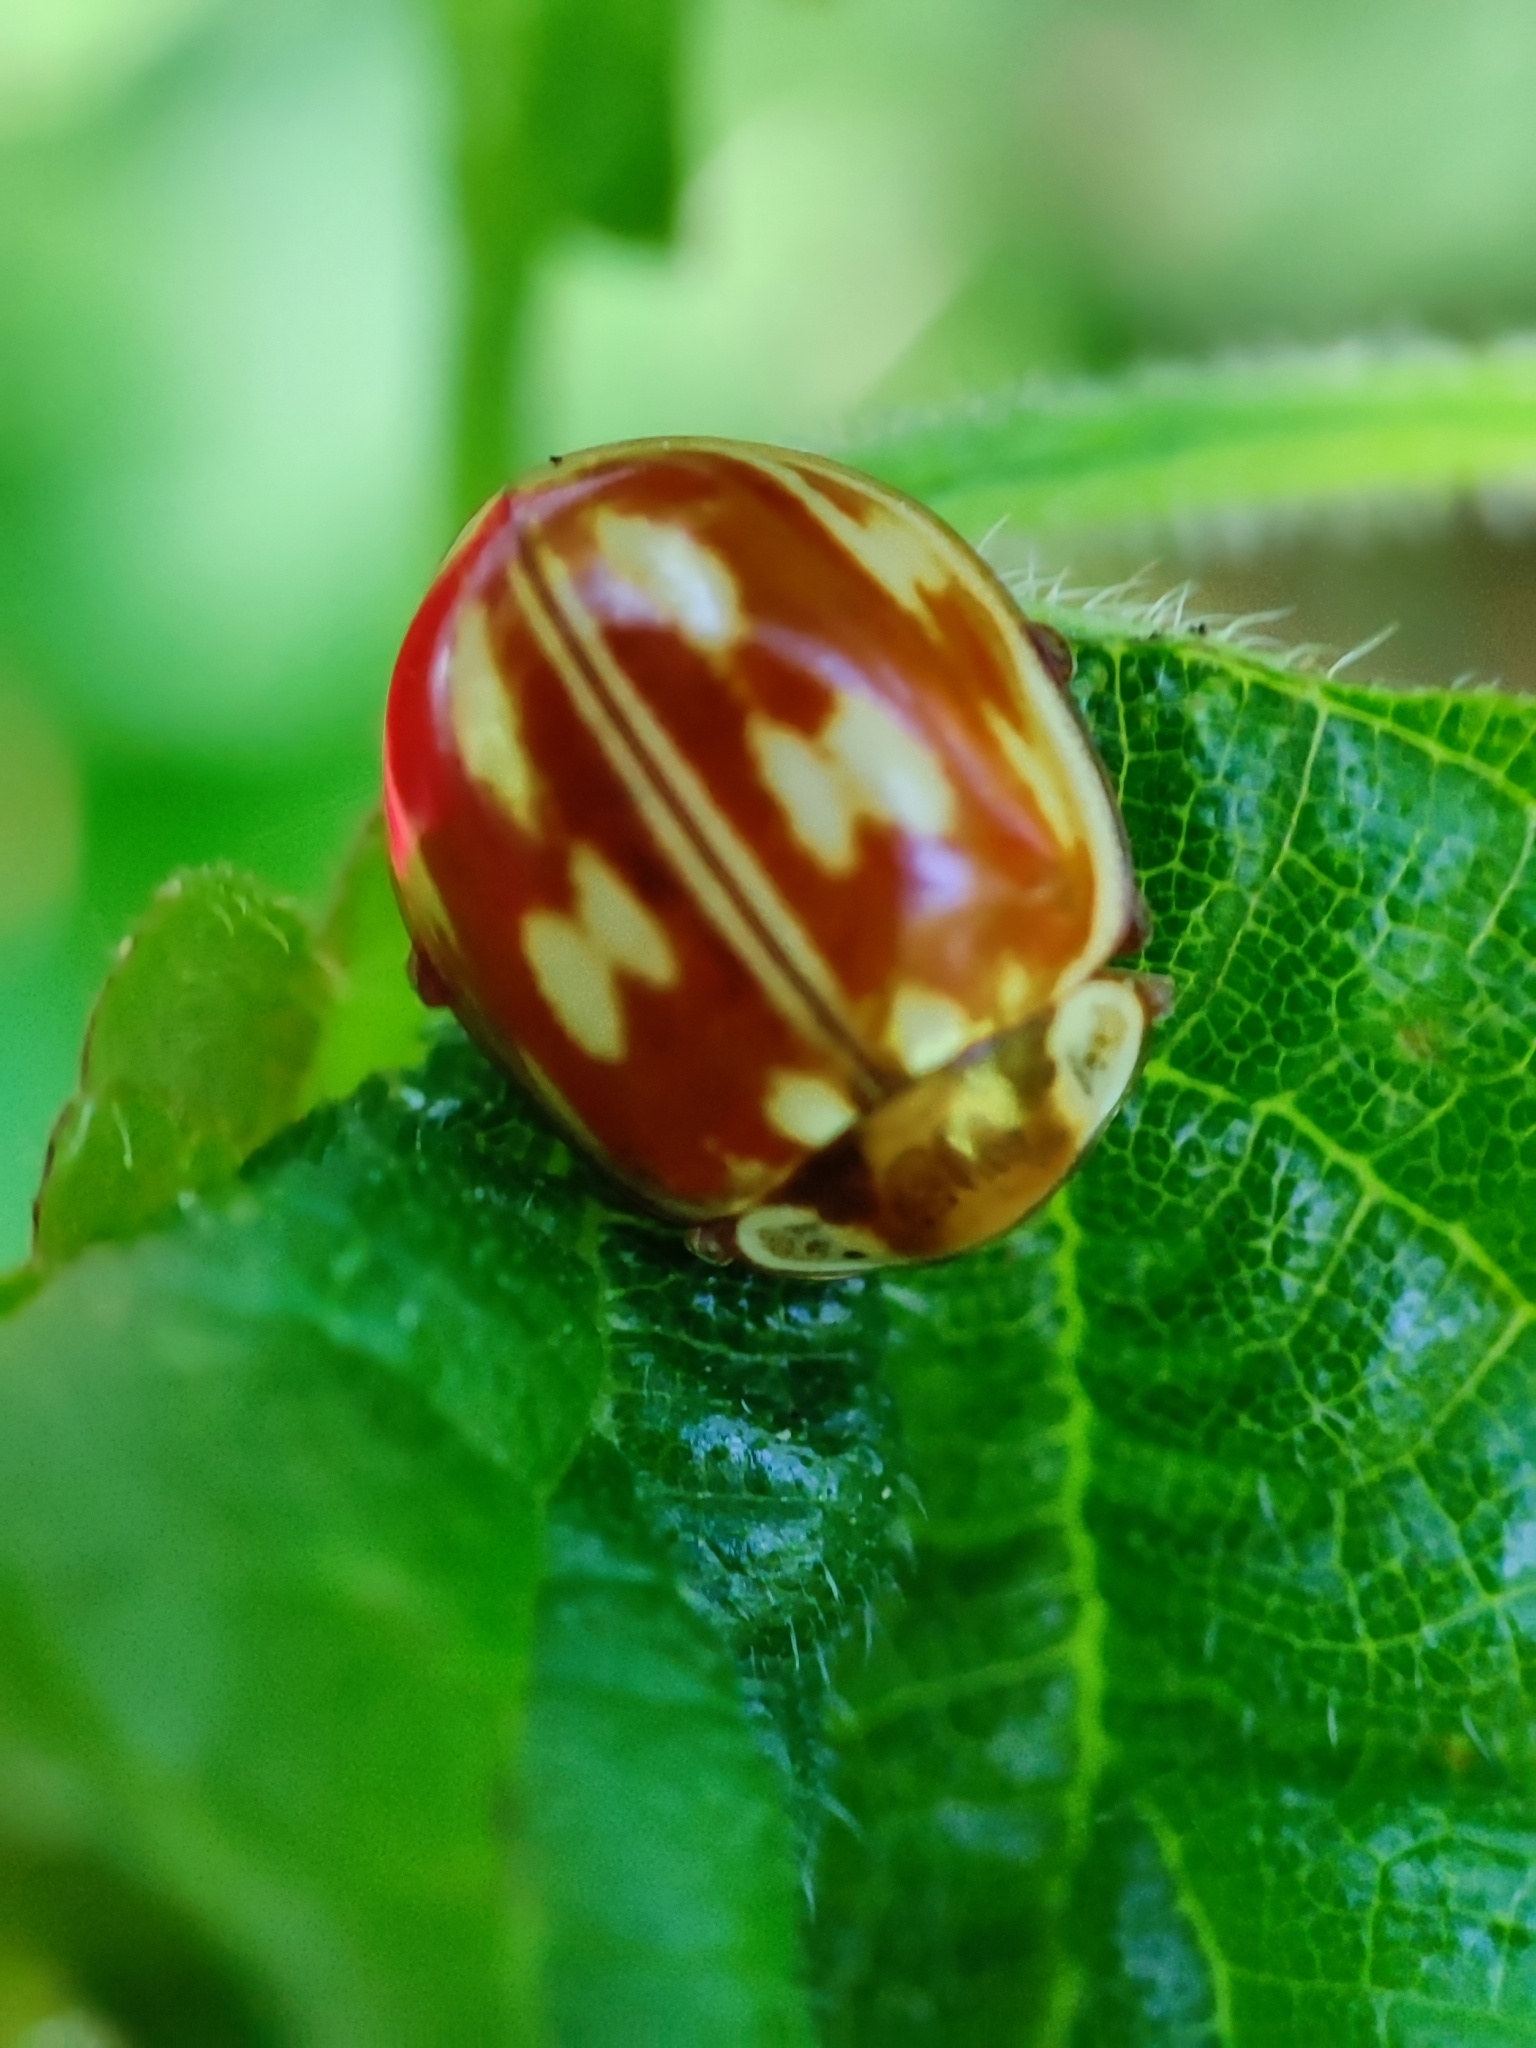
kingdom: Animalia
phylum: Arthropoda
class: Insecta
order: Coleoptera
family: Coccinellidae
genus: Myzia
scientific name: Myzia oblongoguttata
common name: Striped ladybird
